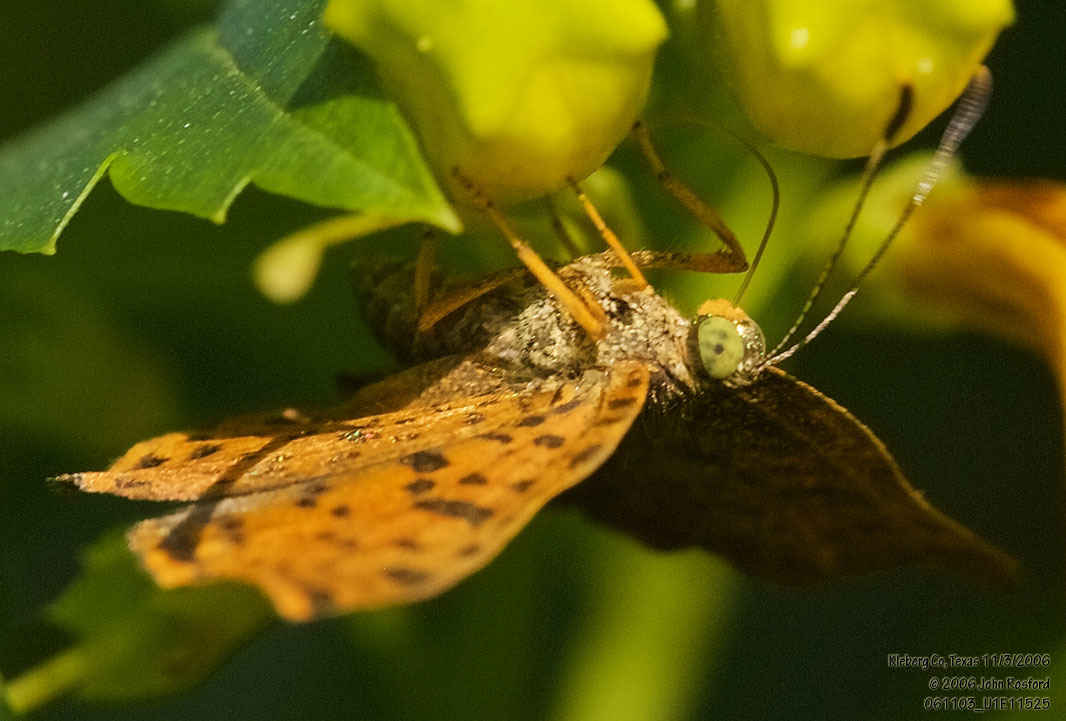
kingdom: Animalia
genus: Caria
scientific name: Caria ino
